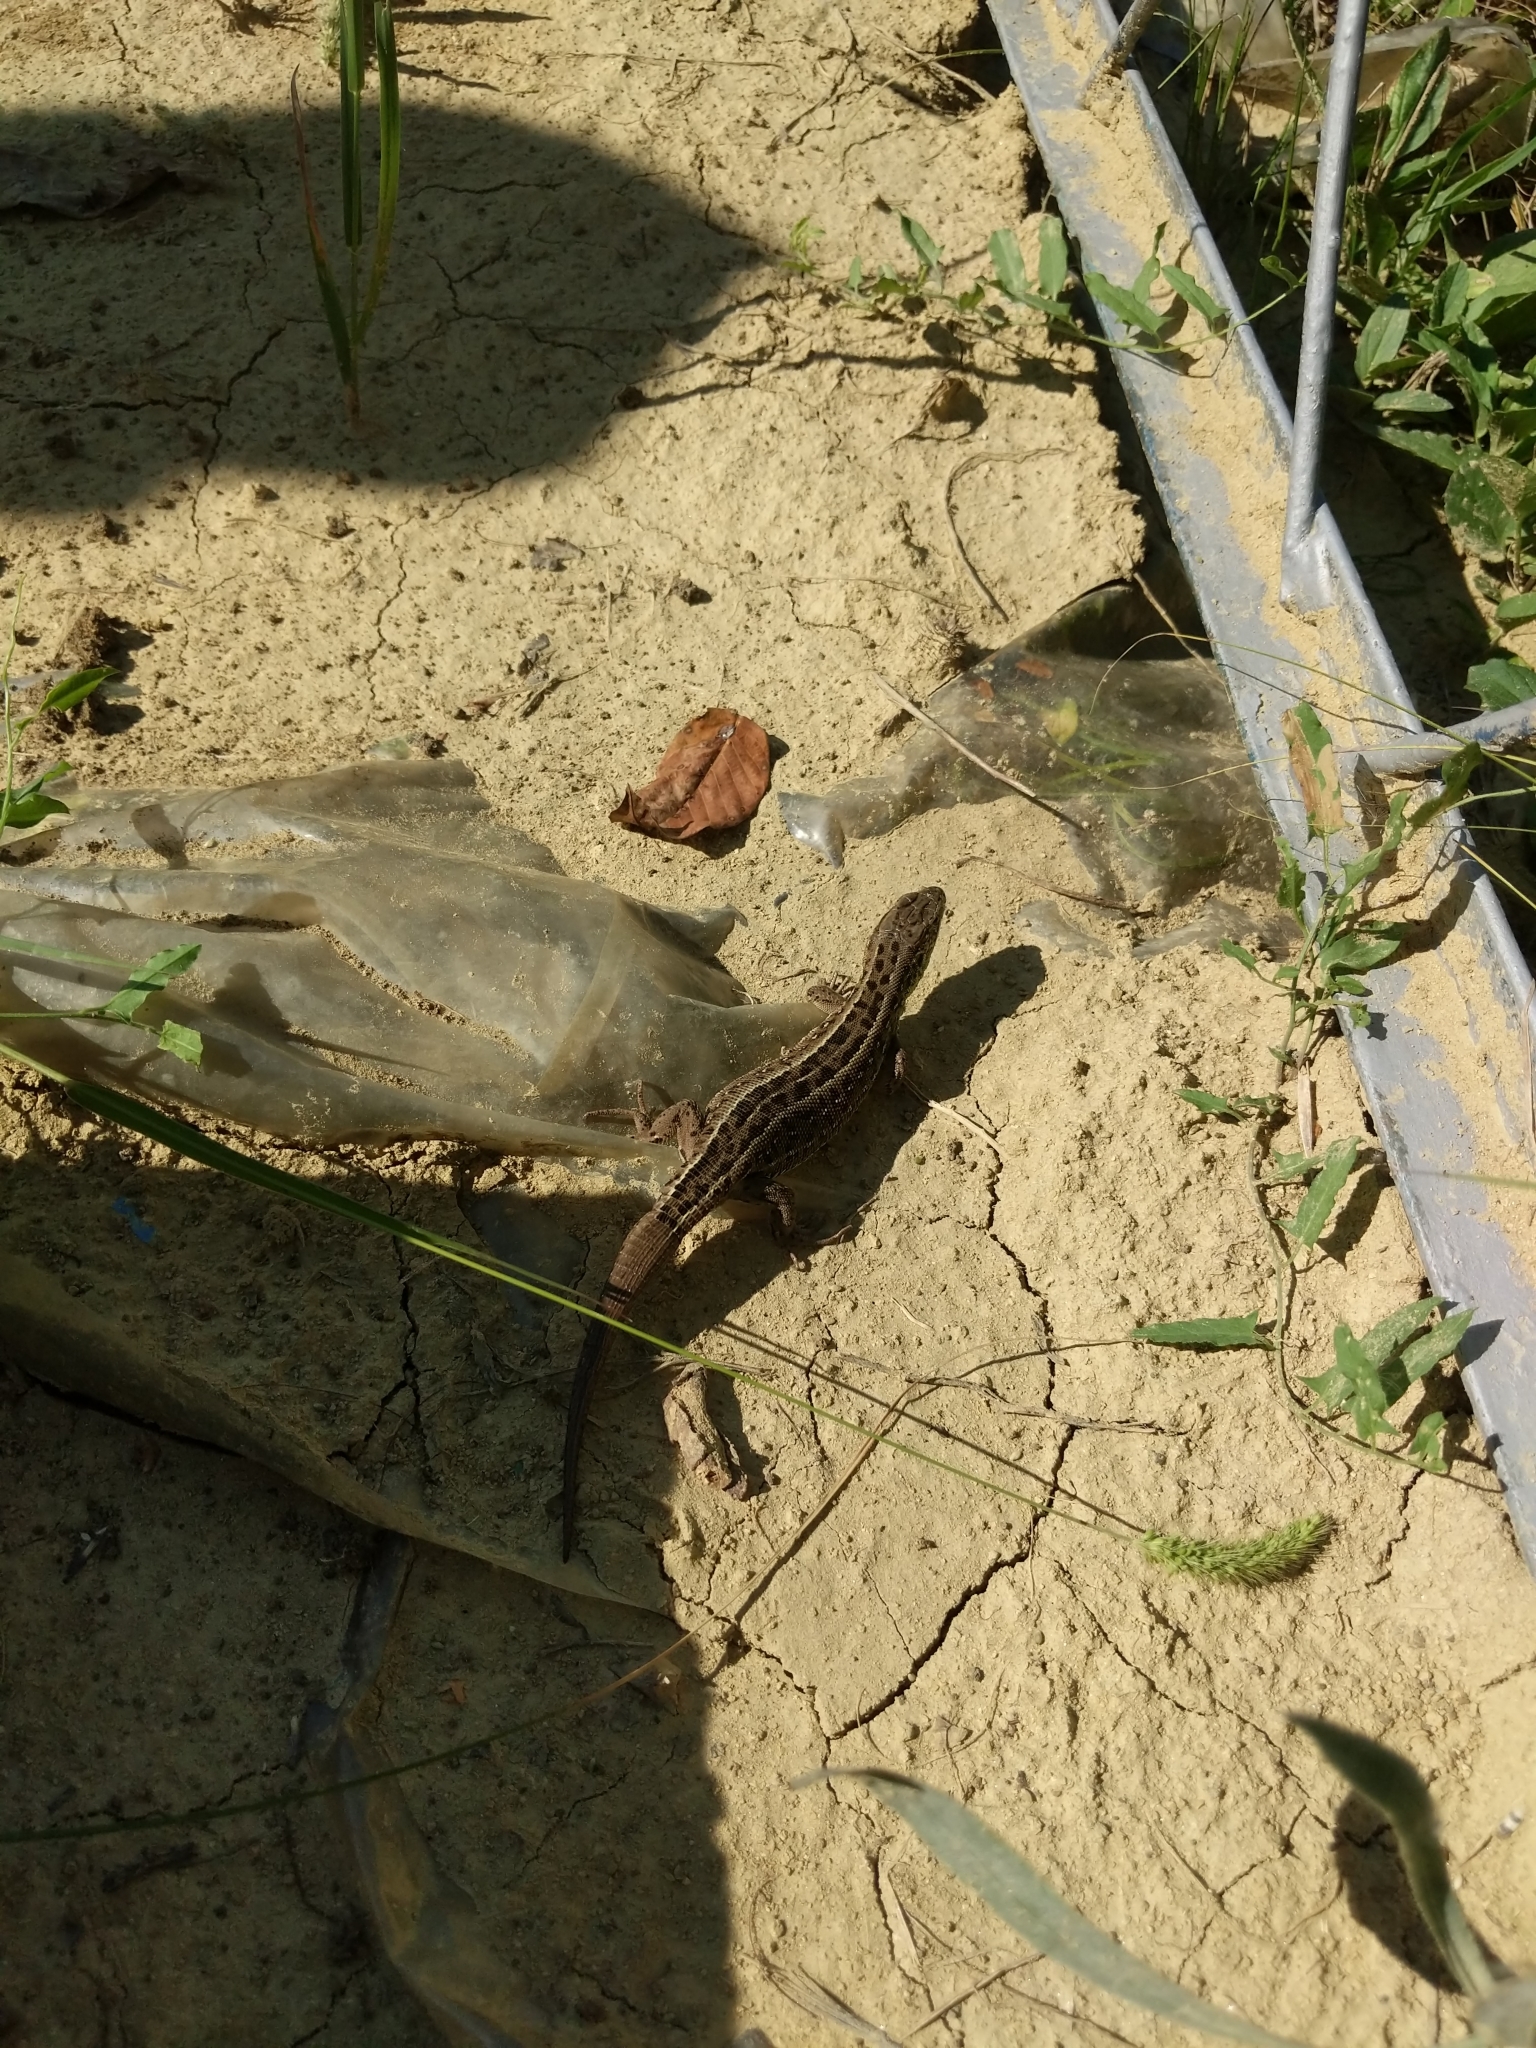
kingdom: Animalia
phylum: Chordata
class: Squamata
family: Lacertidae
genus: Lacerta
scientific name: Lacerta agilis
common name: Sand lizard
